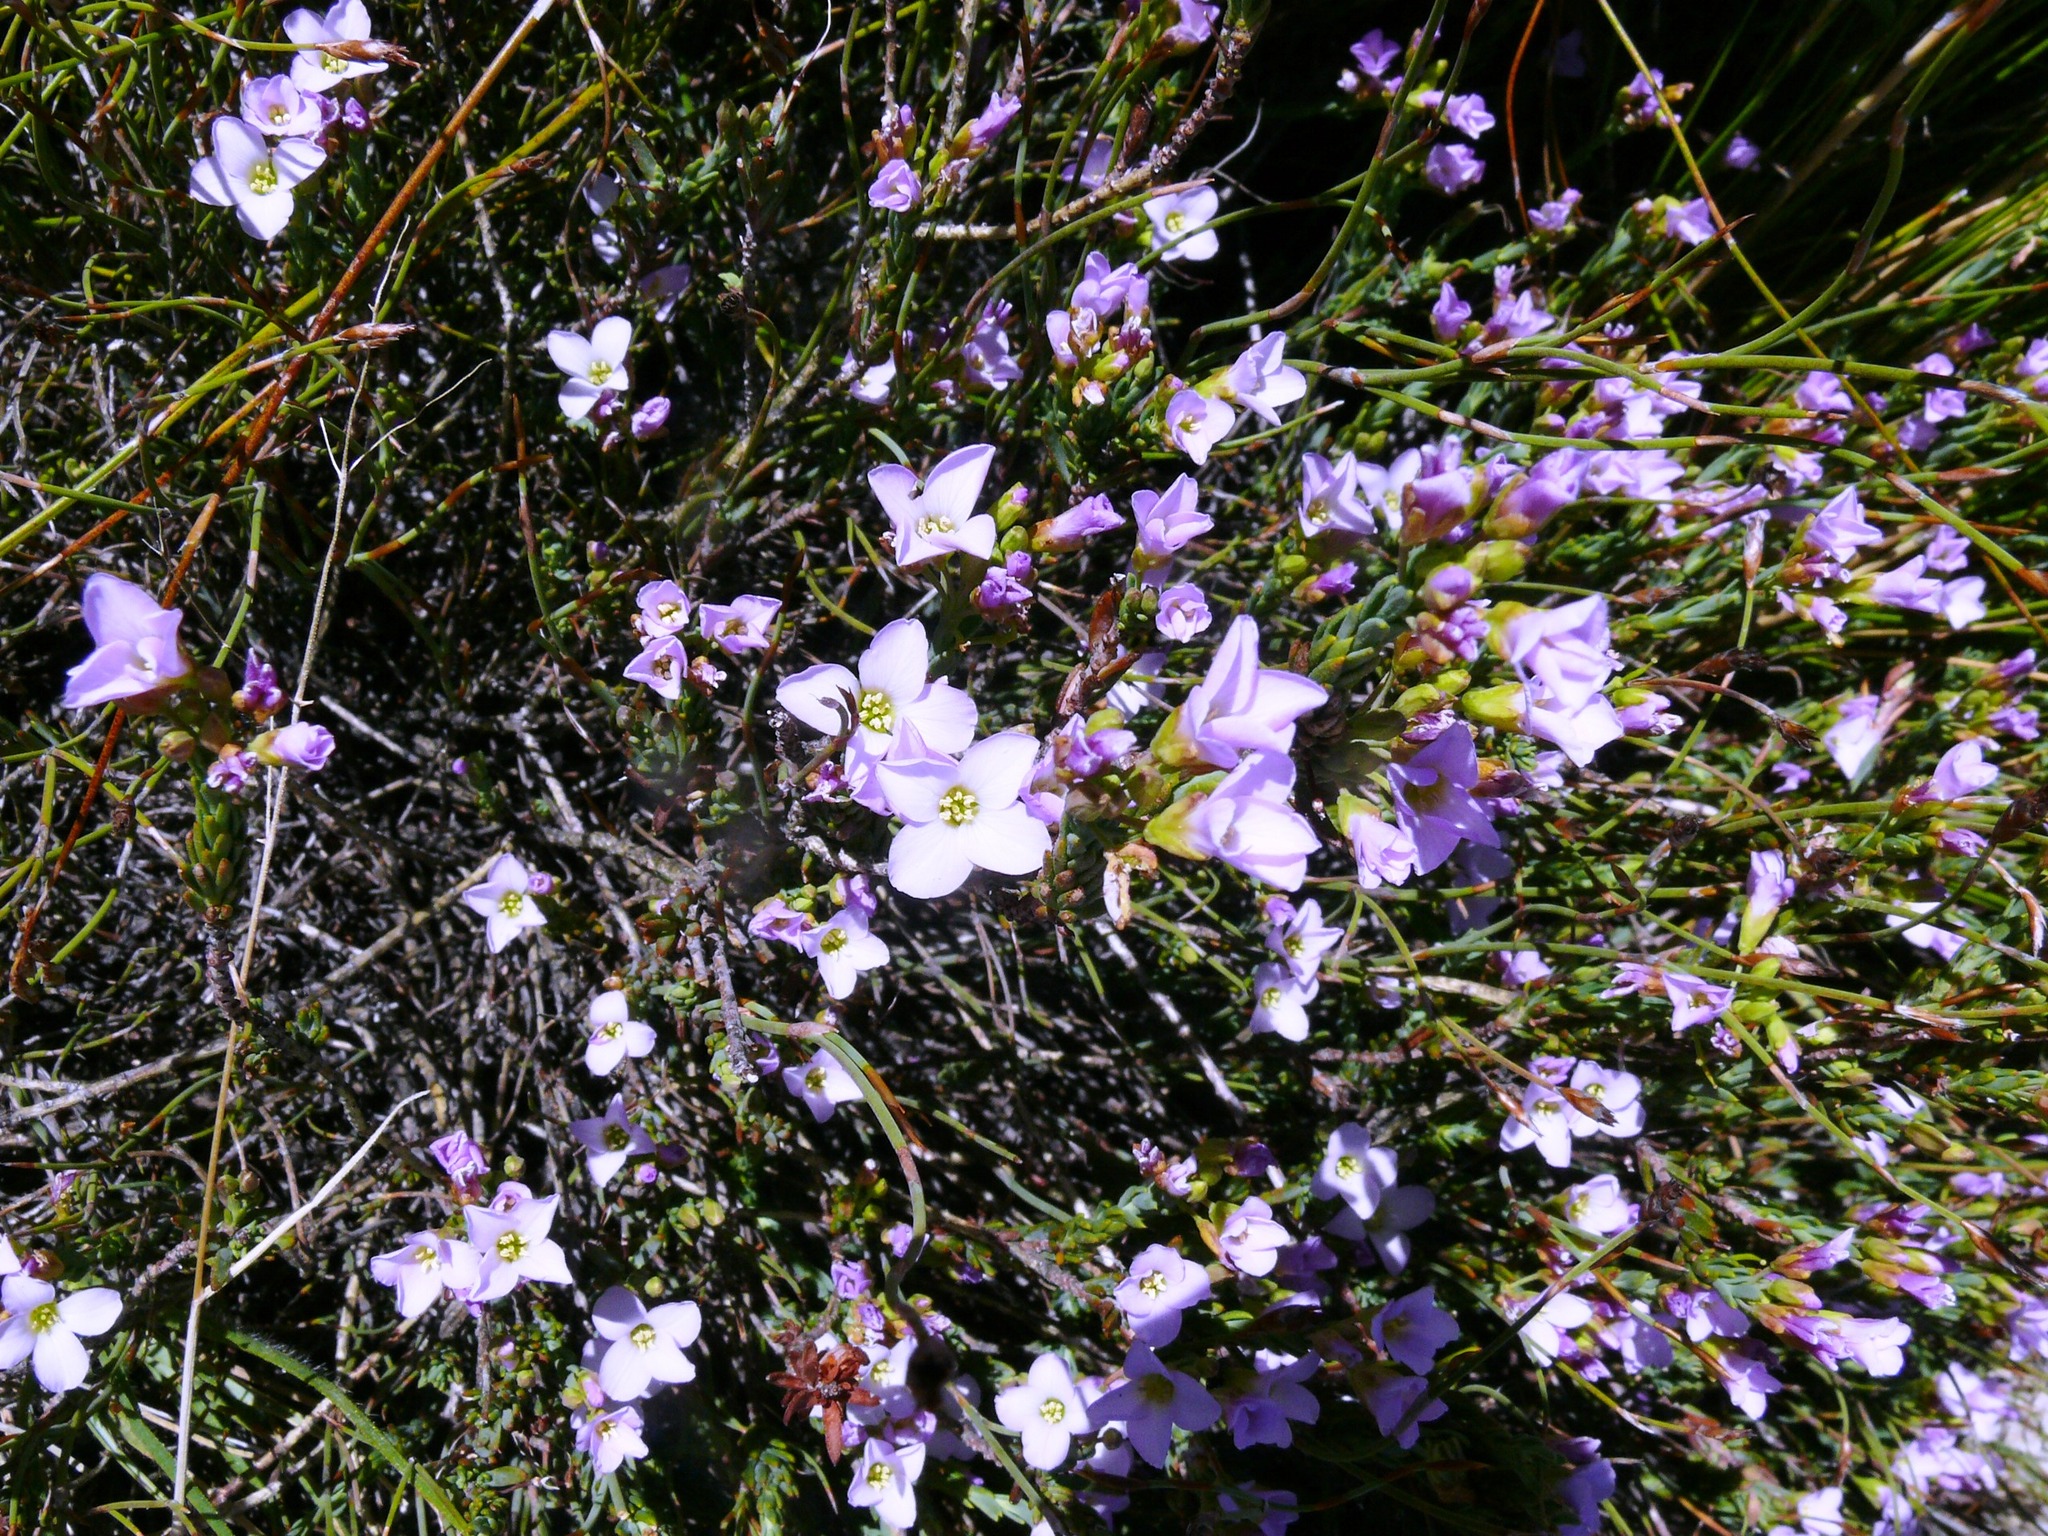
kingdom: Plantae
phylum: Tracheophyta
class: Magnoliopsida
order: Brassicales
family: Brassicaceae
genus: Heliophila
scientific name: Heliophila cedarbergensis
